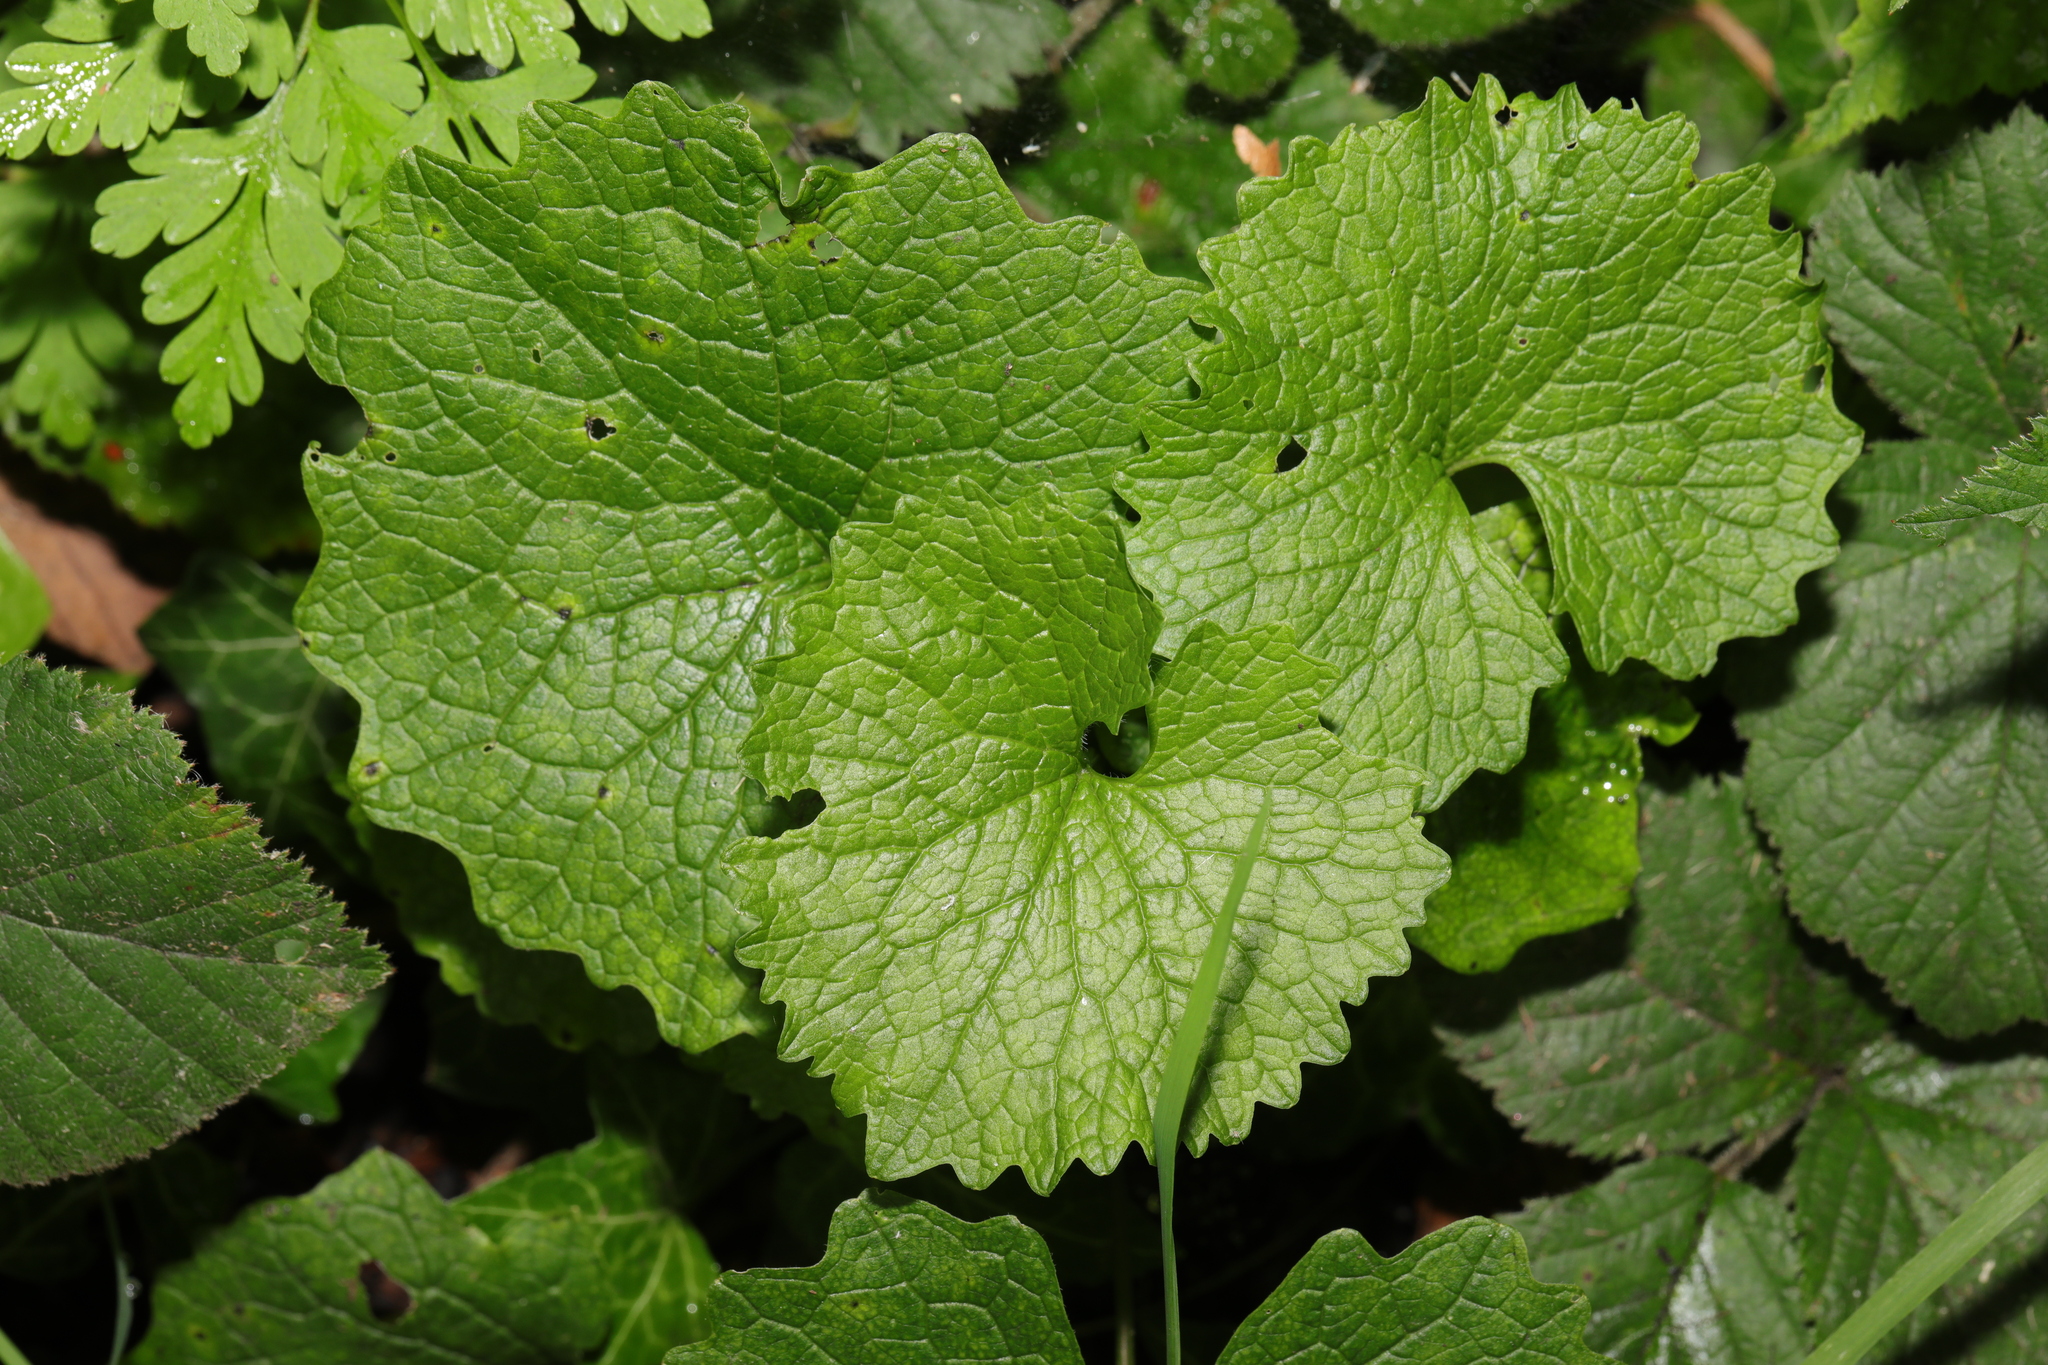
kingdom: Plantae
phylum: Tracheophyta
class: Magnoliopsida
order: Brassicales
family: Brassicaceae
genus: Alliaria
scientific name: Alliaria petiolata
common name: Garlic mustard
